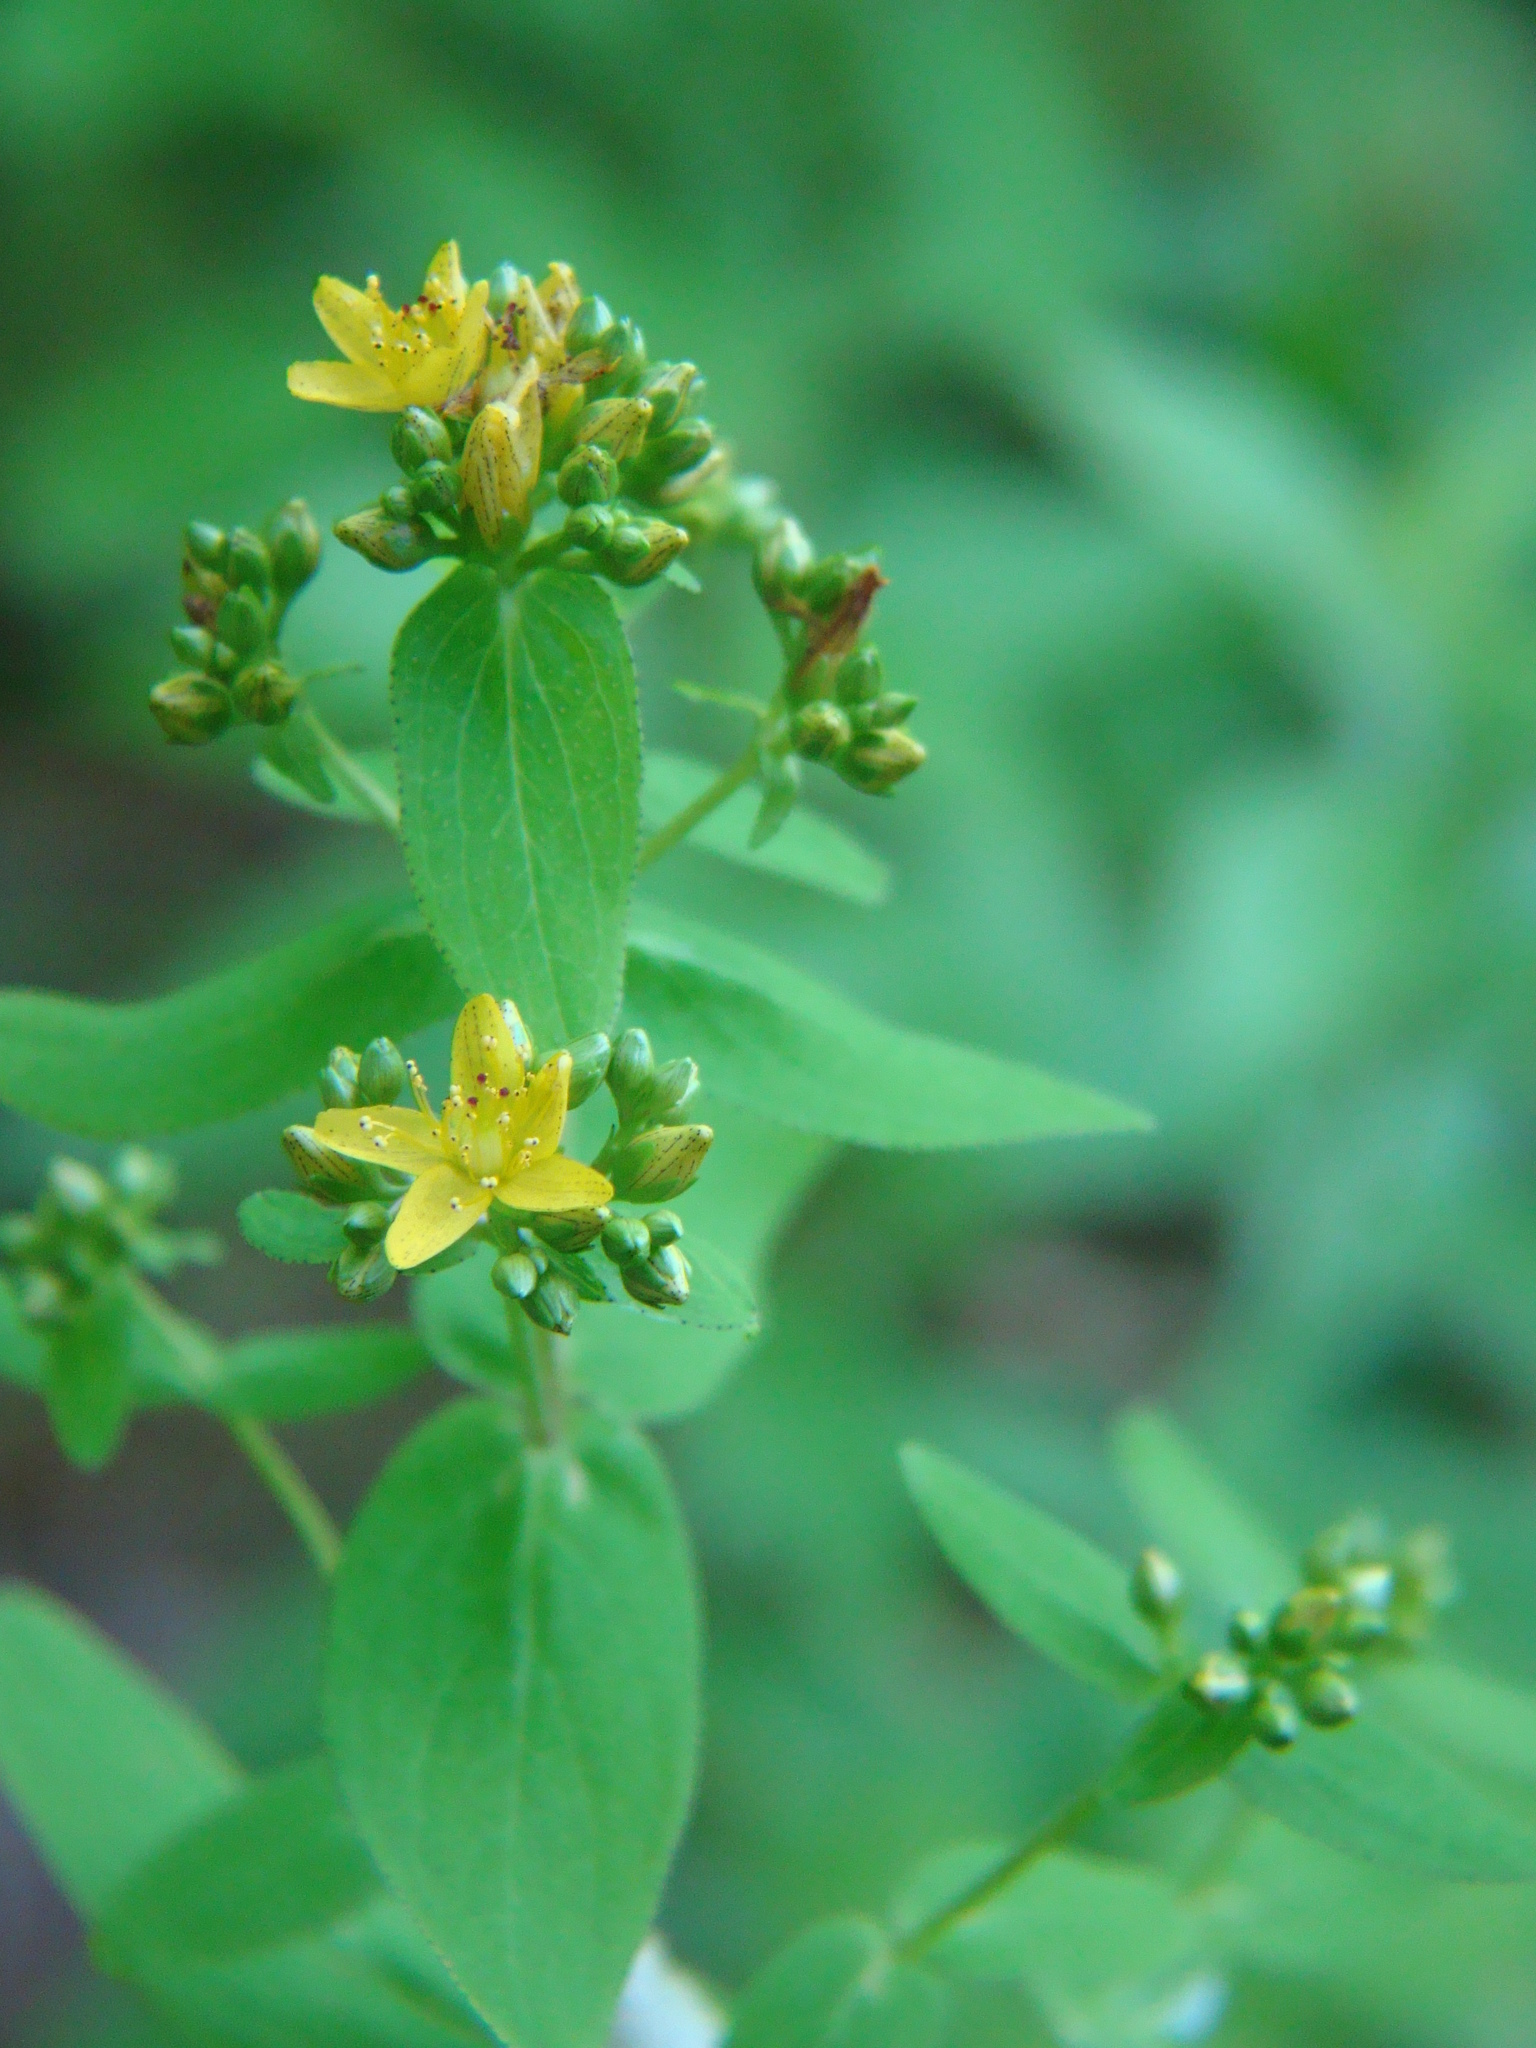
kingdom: Plantae
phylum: Tracheophyta
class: Magnoliopsida
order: Malpighiales
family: Hypericaceae
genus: Hypericum
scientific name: Hypericum punctatum
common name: Spotted st. john's-wort
